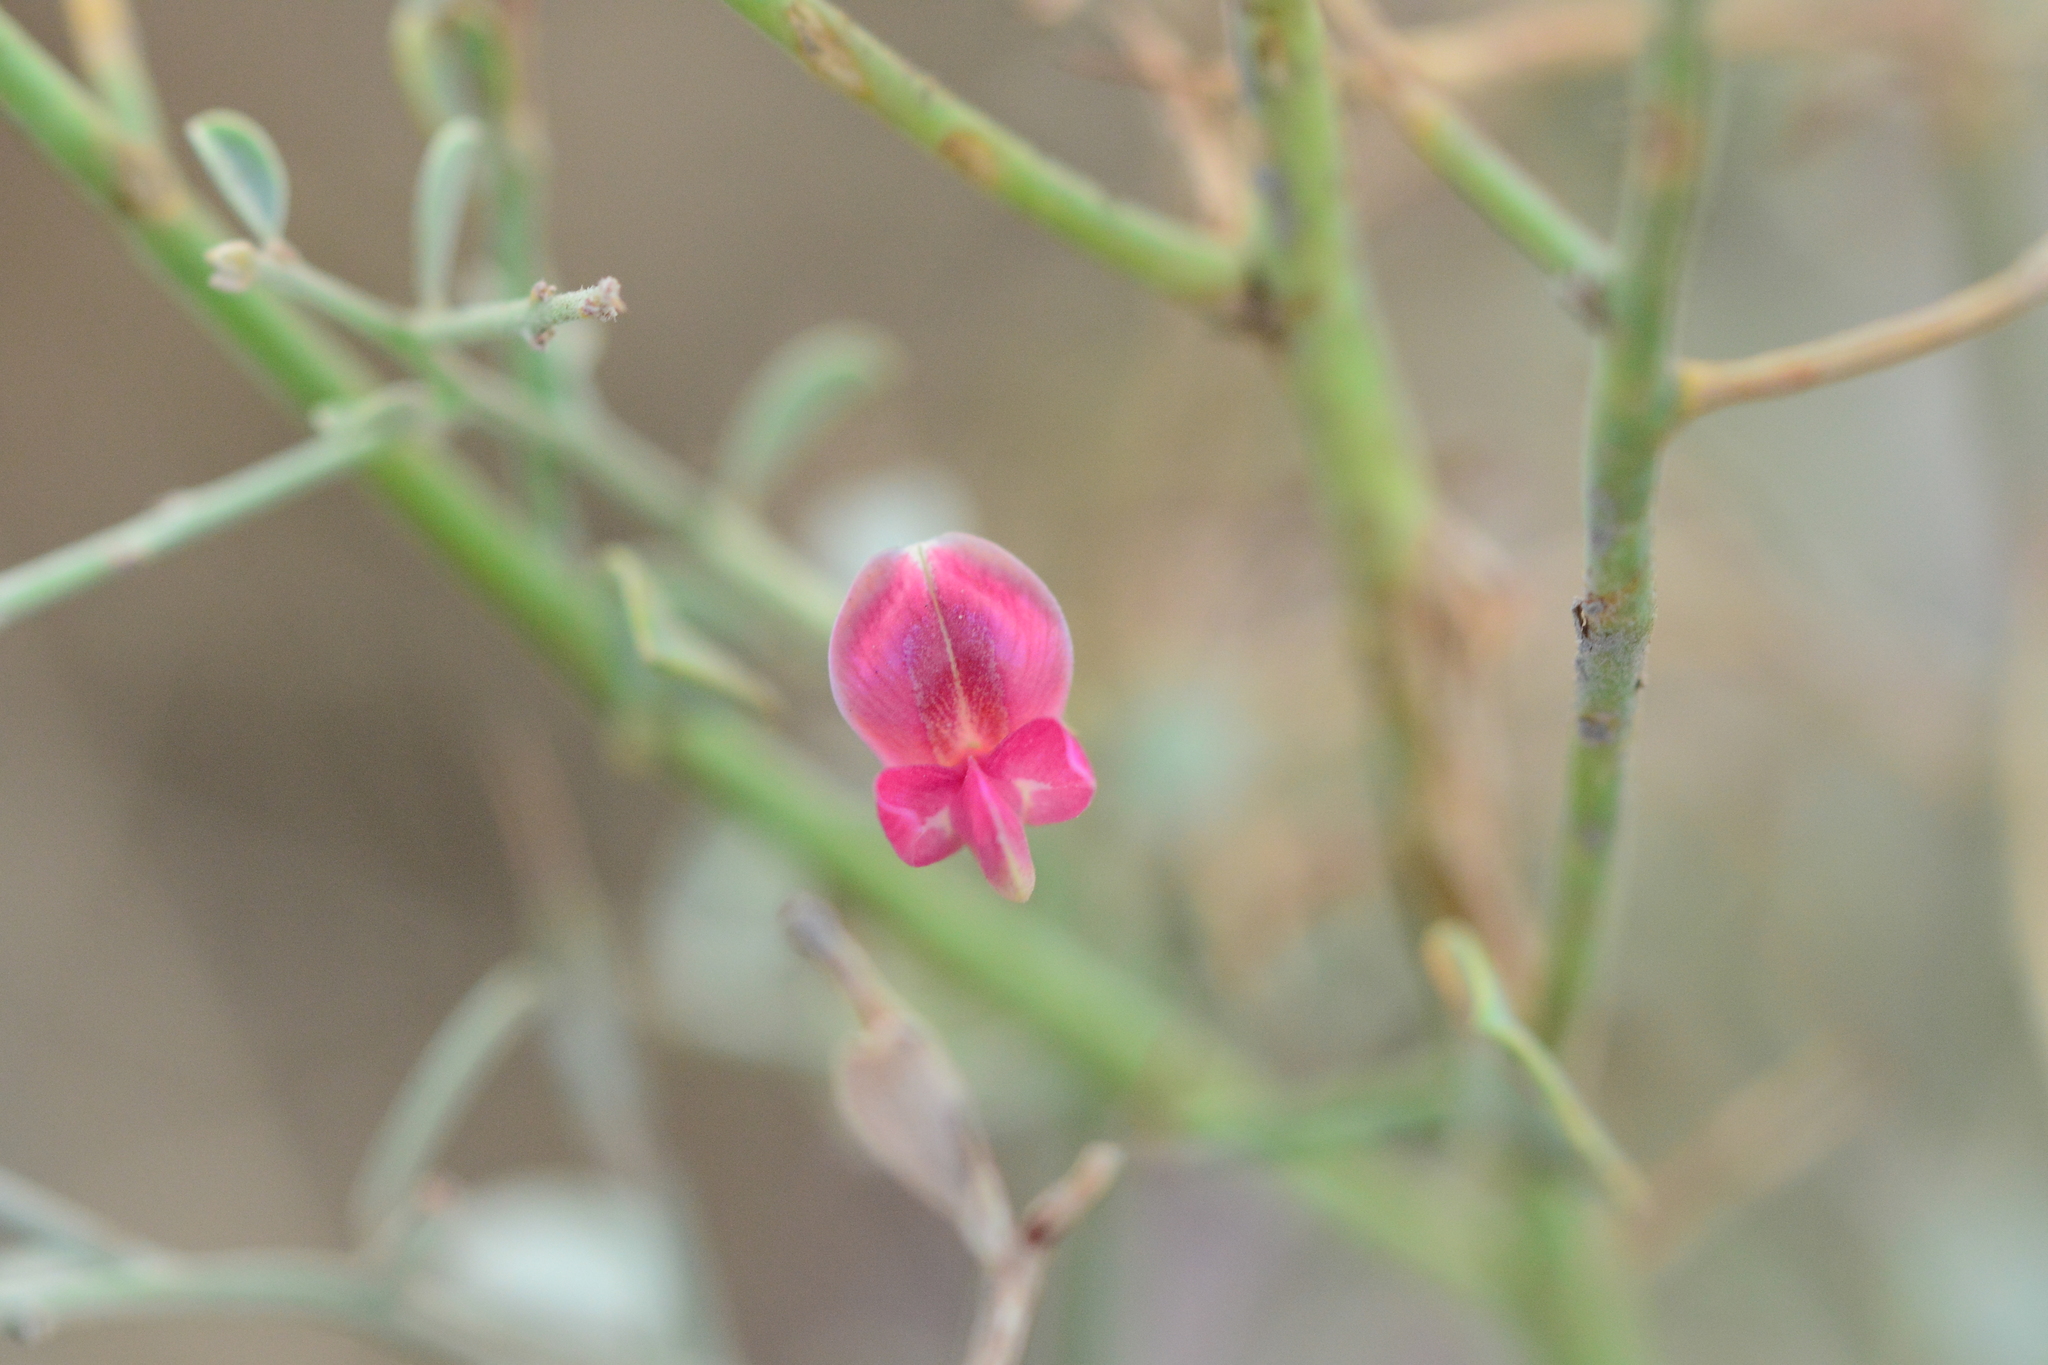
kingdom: Plantae
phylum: Tracheophyta
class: Magnoliopsida
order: Fabales
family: Fabaceae
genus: Alhagi
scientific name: Alhagi maurorum
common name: Camelthorn
